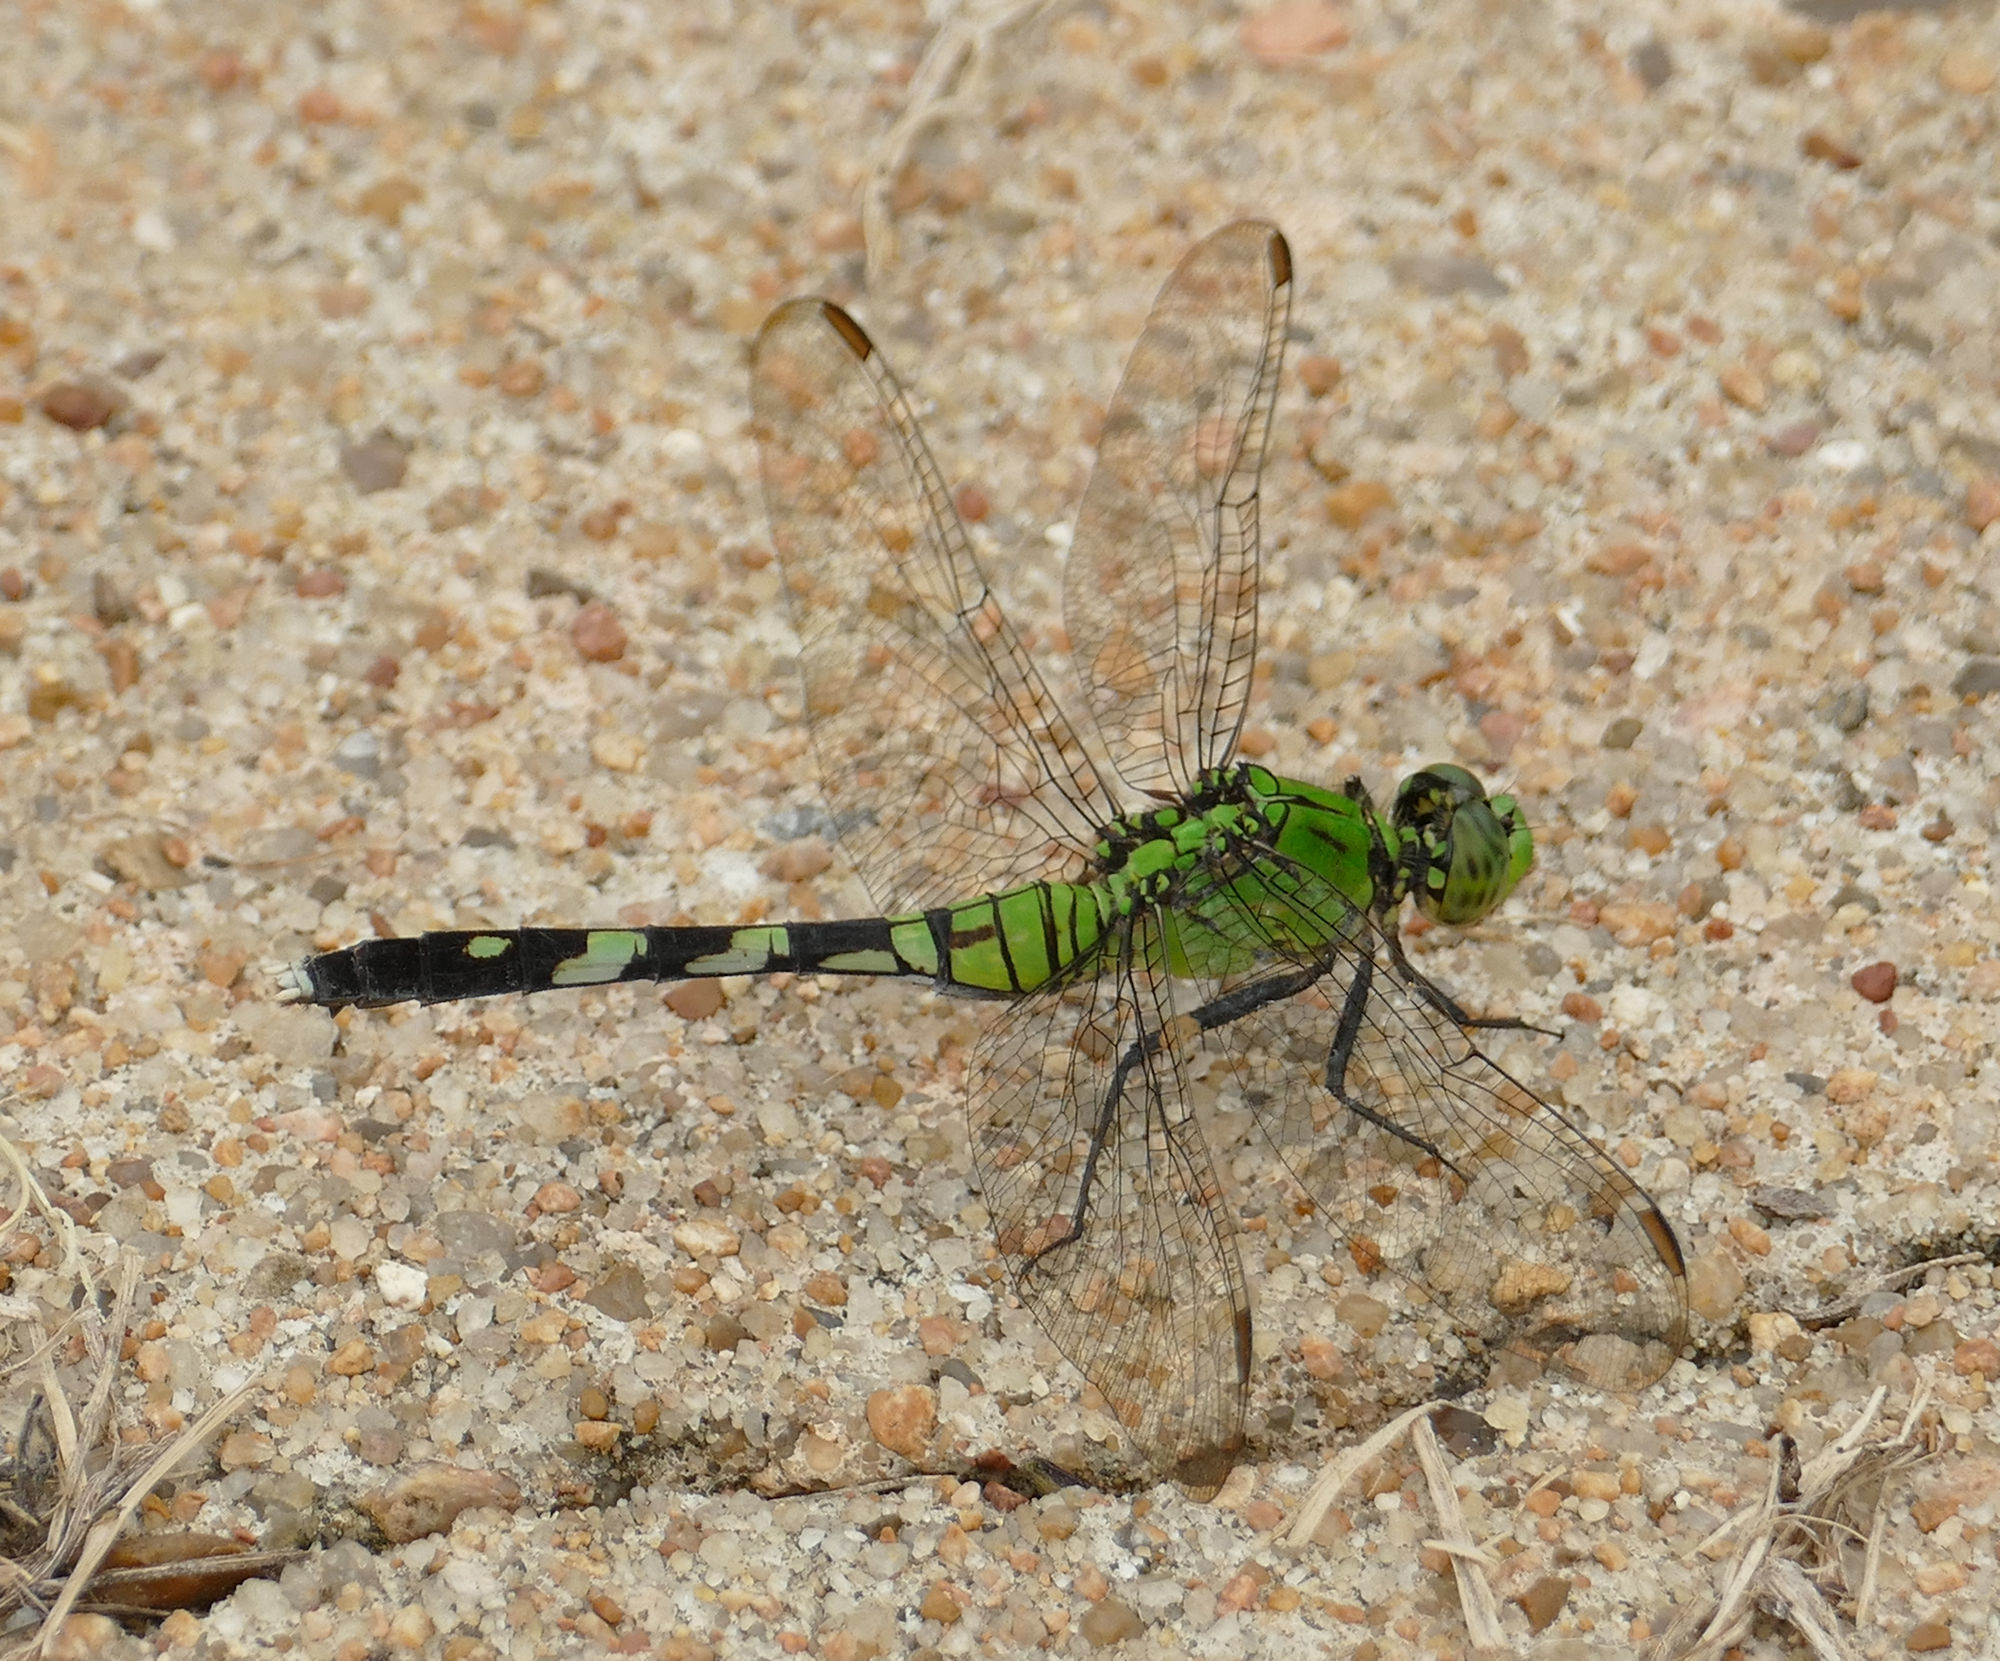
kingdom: Animalia
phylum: Arthropoda
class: Insecta
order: Odonata
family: Libellulidae
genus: Erythemis
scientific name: Erythemis simplicicollis
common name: Eastern pondhawk
